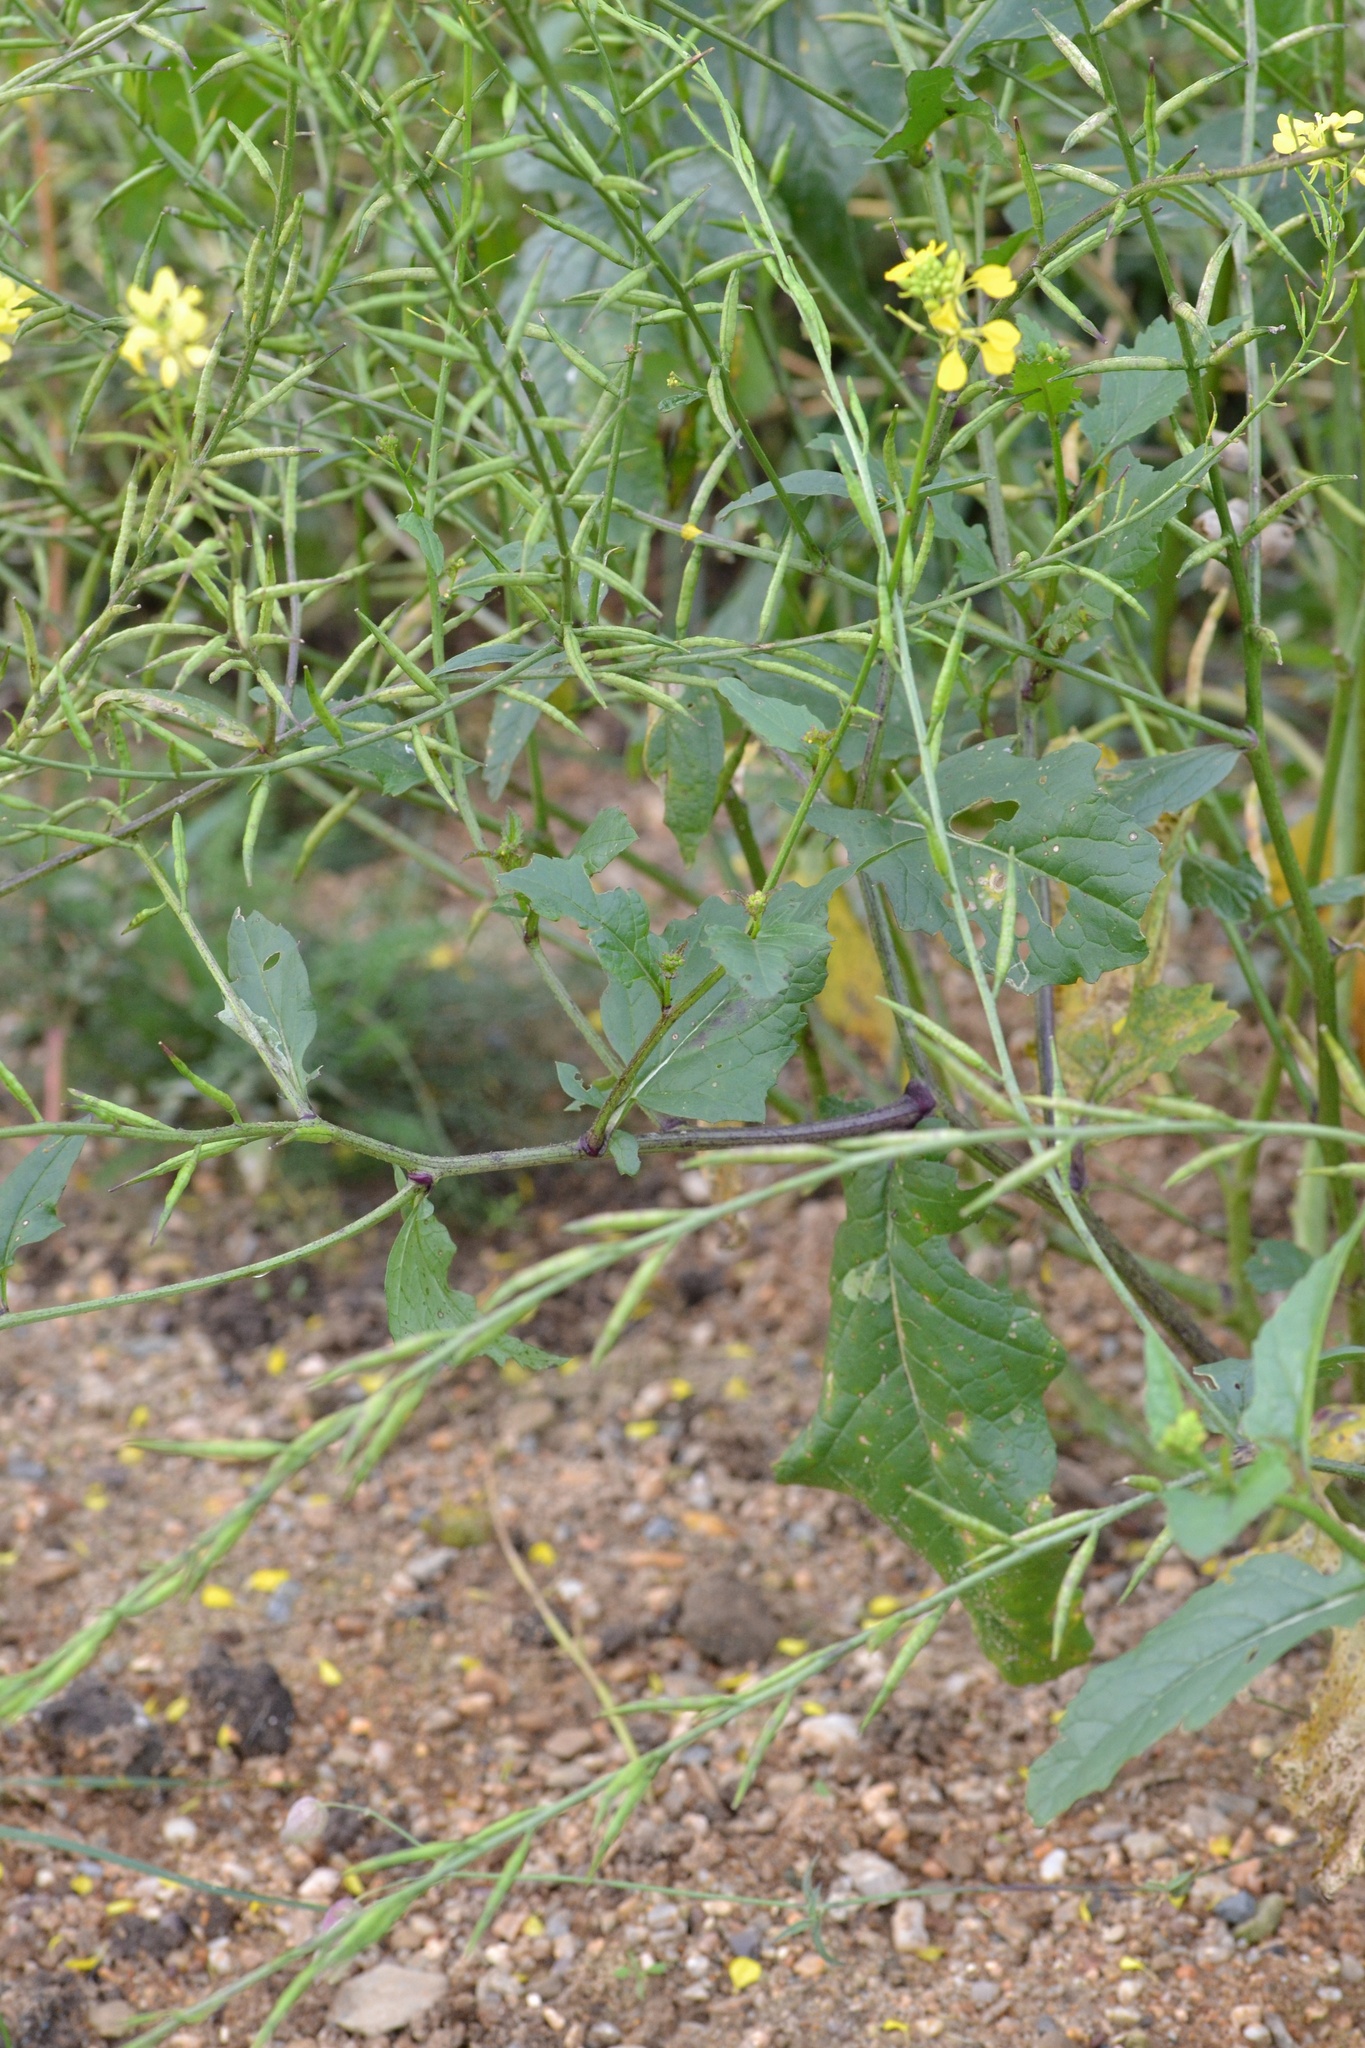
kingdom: Plantae
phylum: Tracheophyta
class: Magnoliopsida
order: Brassicales
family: Brassicaceae
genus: Sinapis
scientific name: Sinapis arvensis
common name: Charlock
